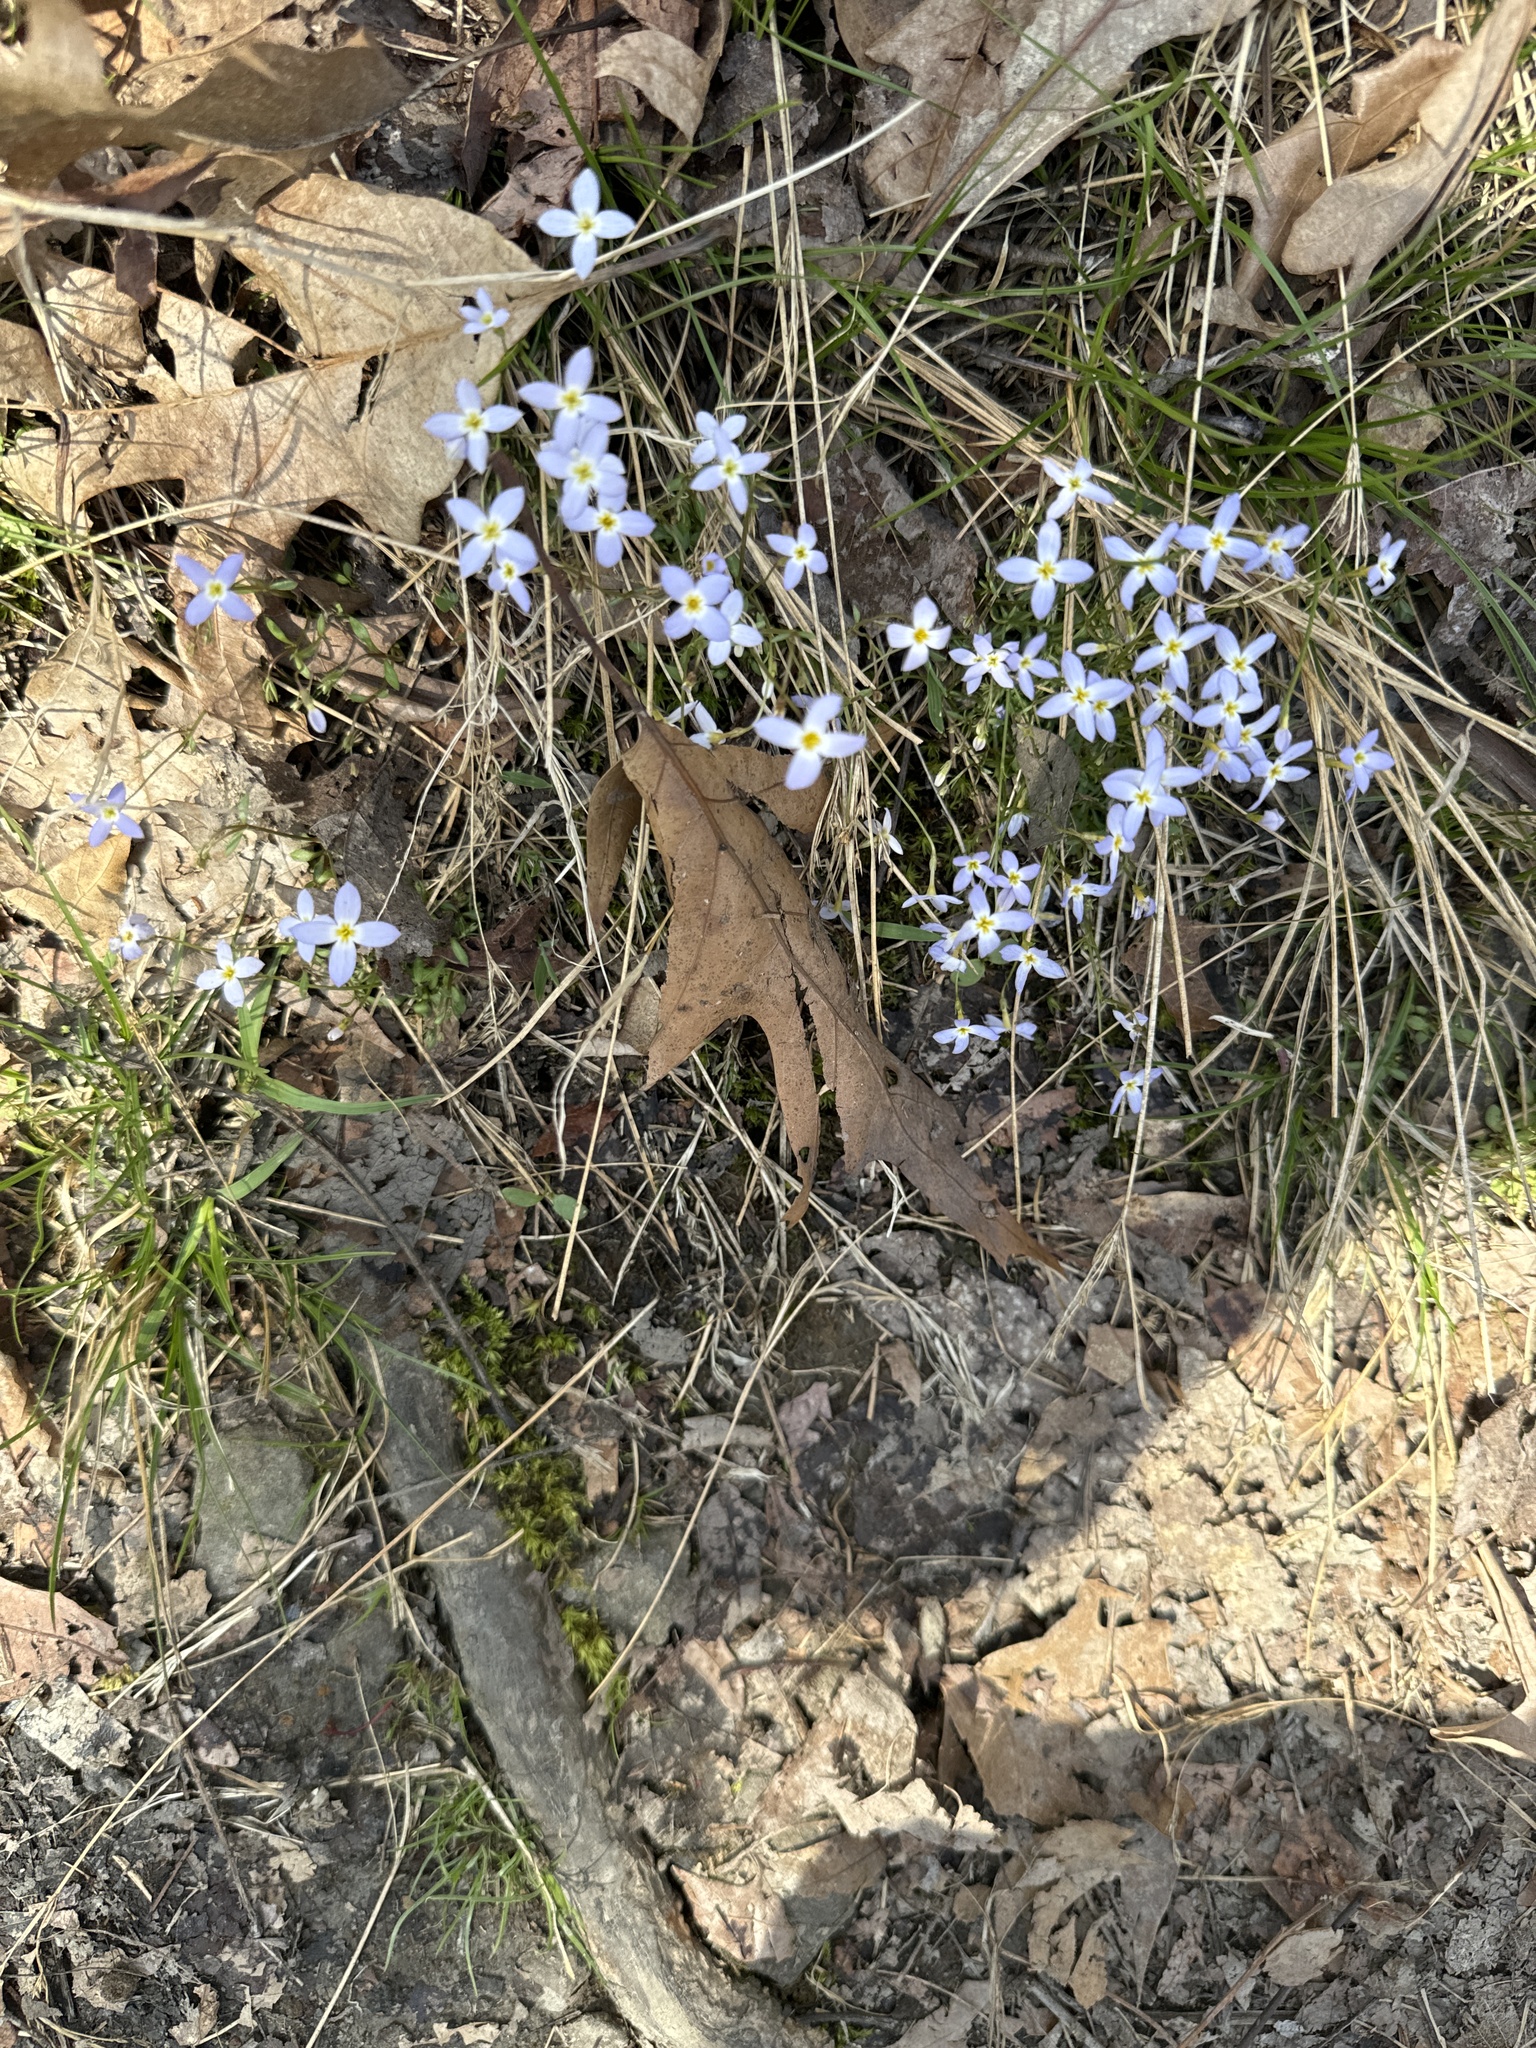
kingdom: Plantae
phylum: Tracheophyta
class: Magnoliopsida
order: Gentianales
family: Rubiaceae
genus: Houstonia
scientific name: Houstonia caerulea
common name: Bluets
